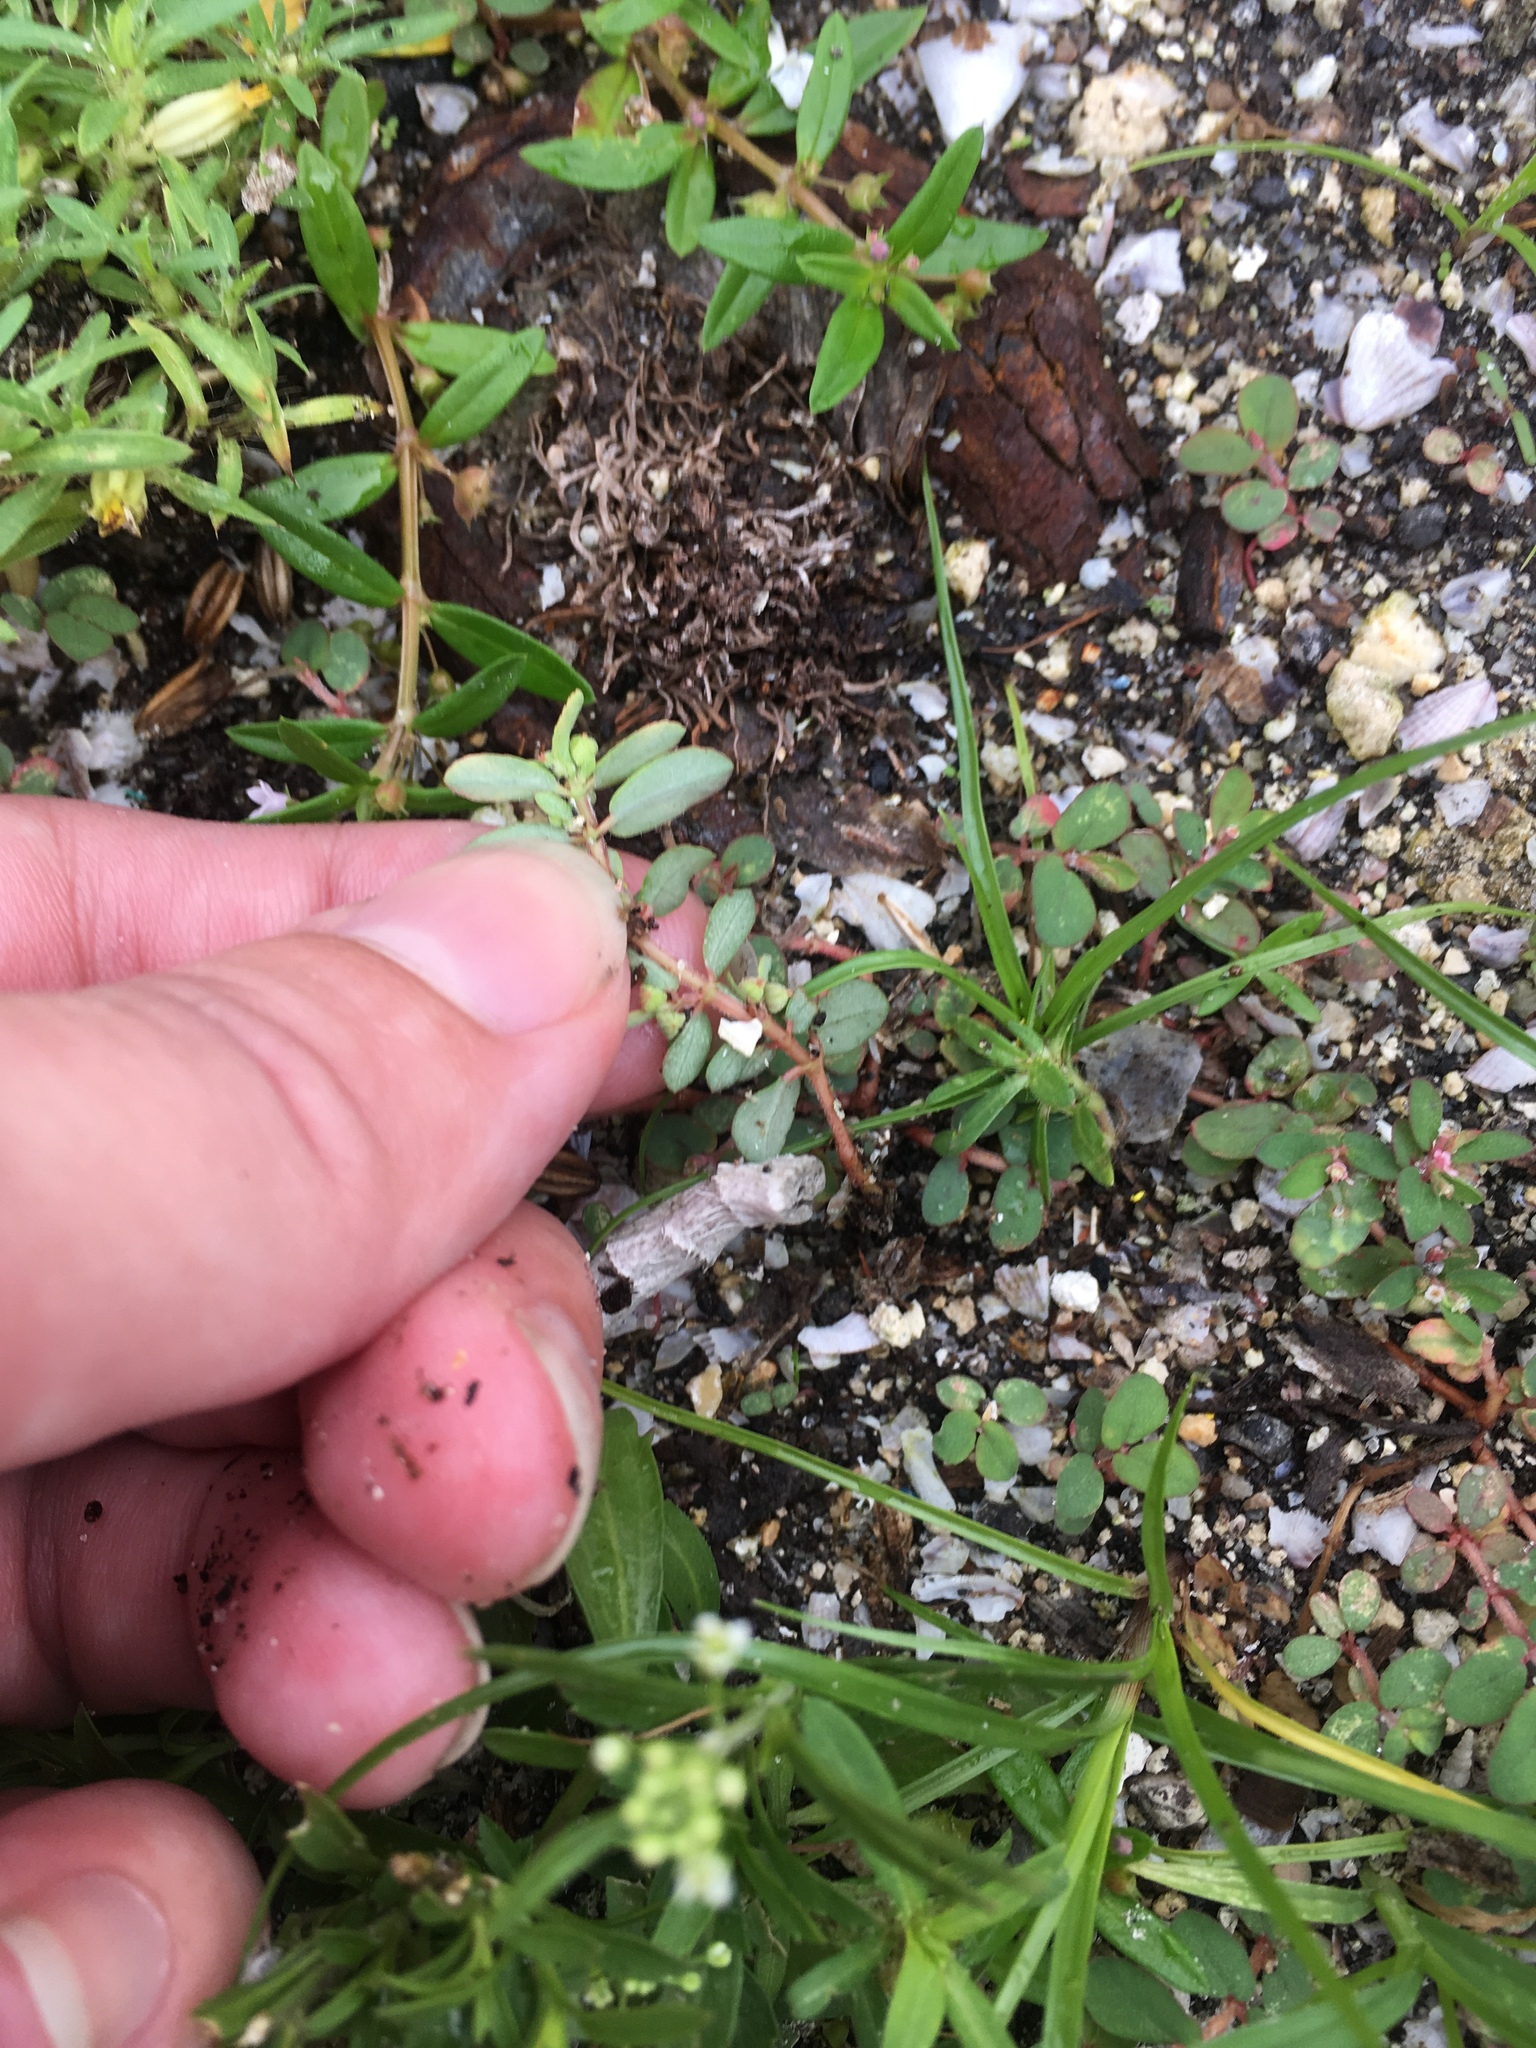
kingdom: Plantae
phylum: Tracheophyta
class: Magnoliopsida
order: Malpighiales
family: Euphorbiaceae
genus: Euphorbia
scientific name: Euphorbia maculata
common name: Spotted spurge
